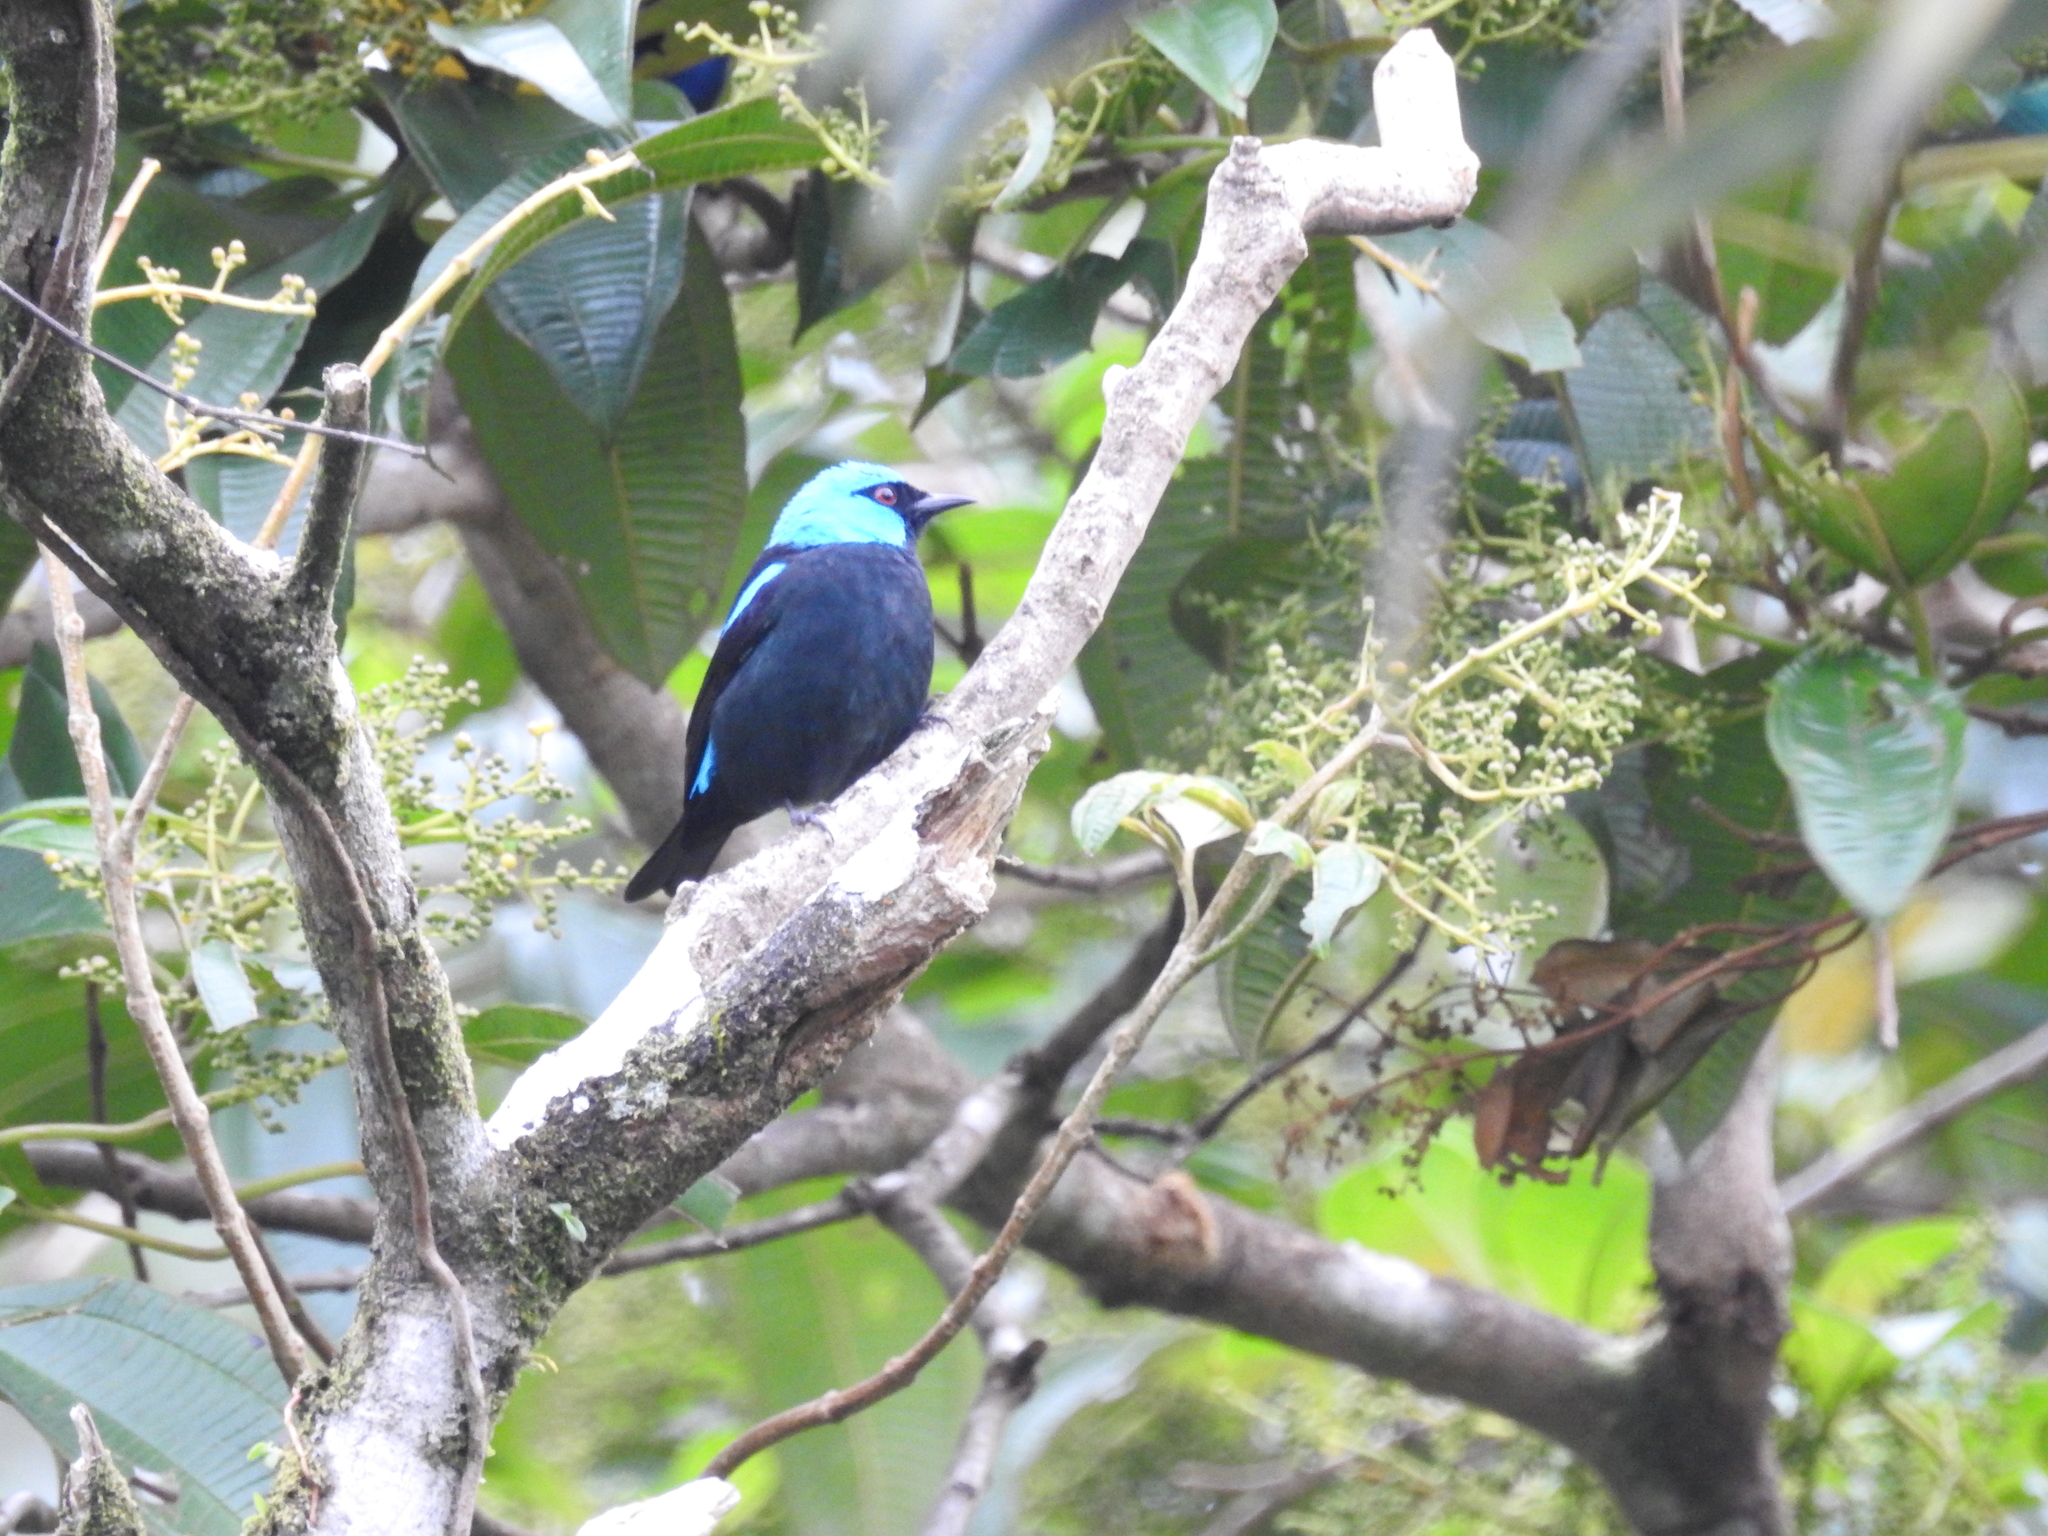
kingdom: Animalia
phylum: Chordata
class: Aves
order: Passeriformes
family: Thraupidae
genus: Dacnis
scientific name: Dacnis venusta
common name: Scarlet-thighed dacnis
